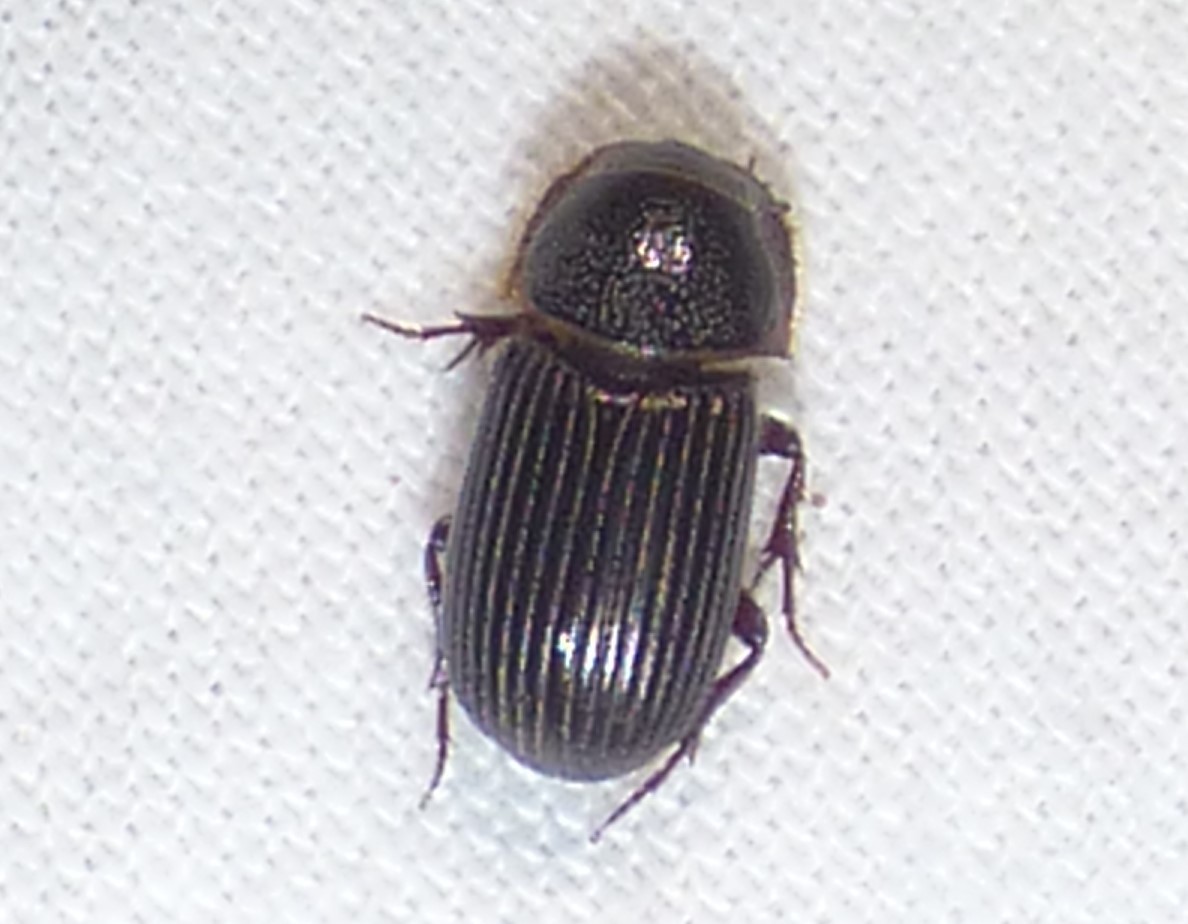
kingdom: Animalia
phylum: Arthropoda
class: Insecta
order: Coleoptera
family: Scarabaeidae
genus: Martineziana
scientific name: Martineziana dutertrei
